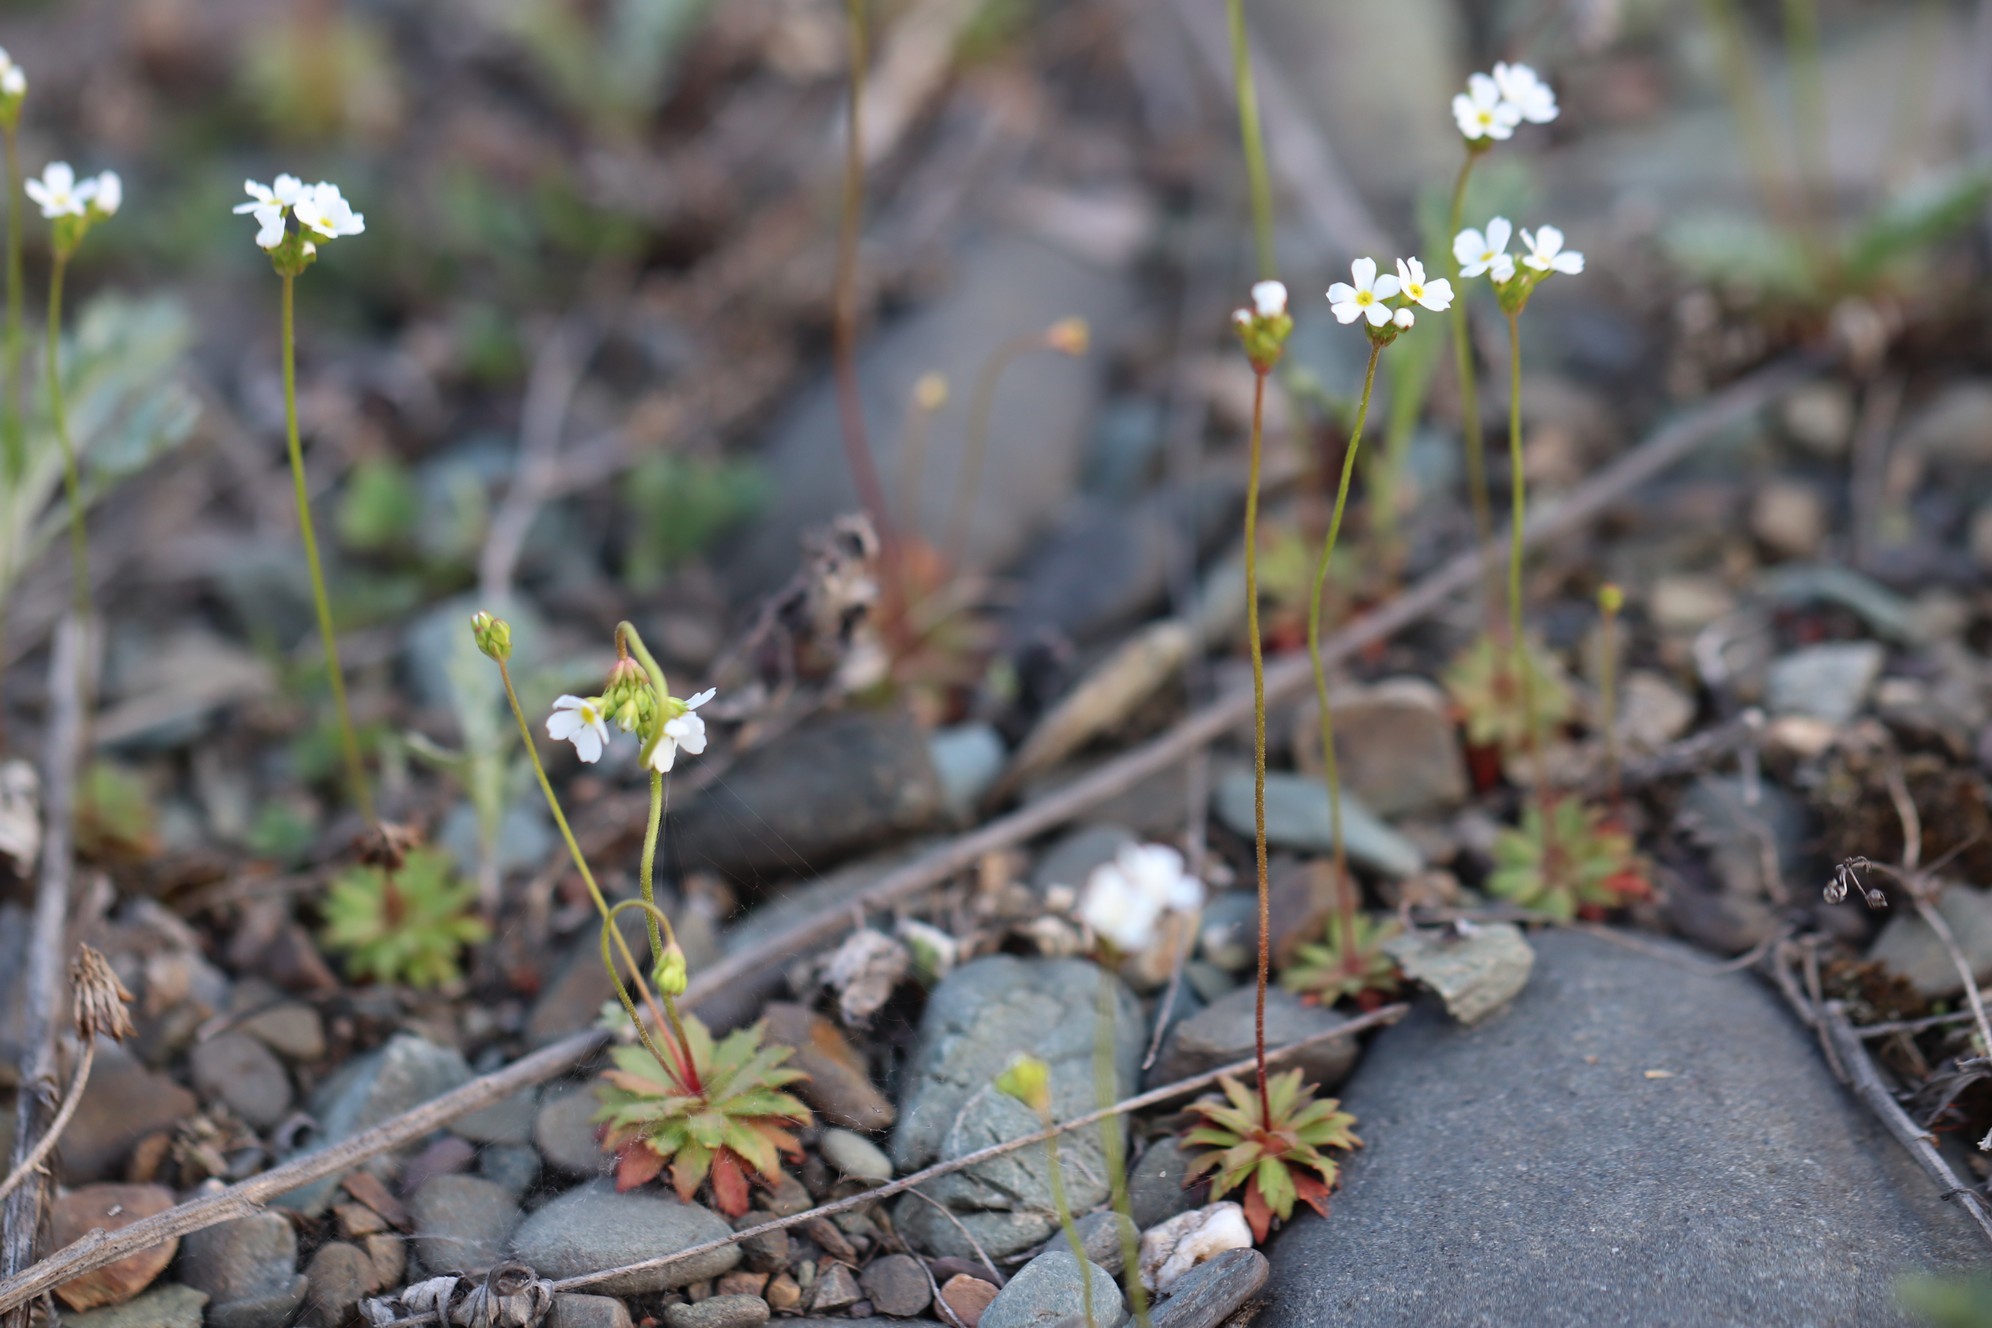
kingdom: Plantae
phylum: Tracheophyta
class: Magnoliopsida
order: Ericales
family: Primulaceae
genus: Androsace
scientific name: Androsace septentrionalis
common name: Hairy northern fairy-candelabra
